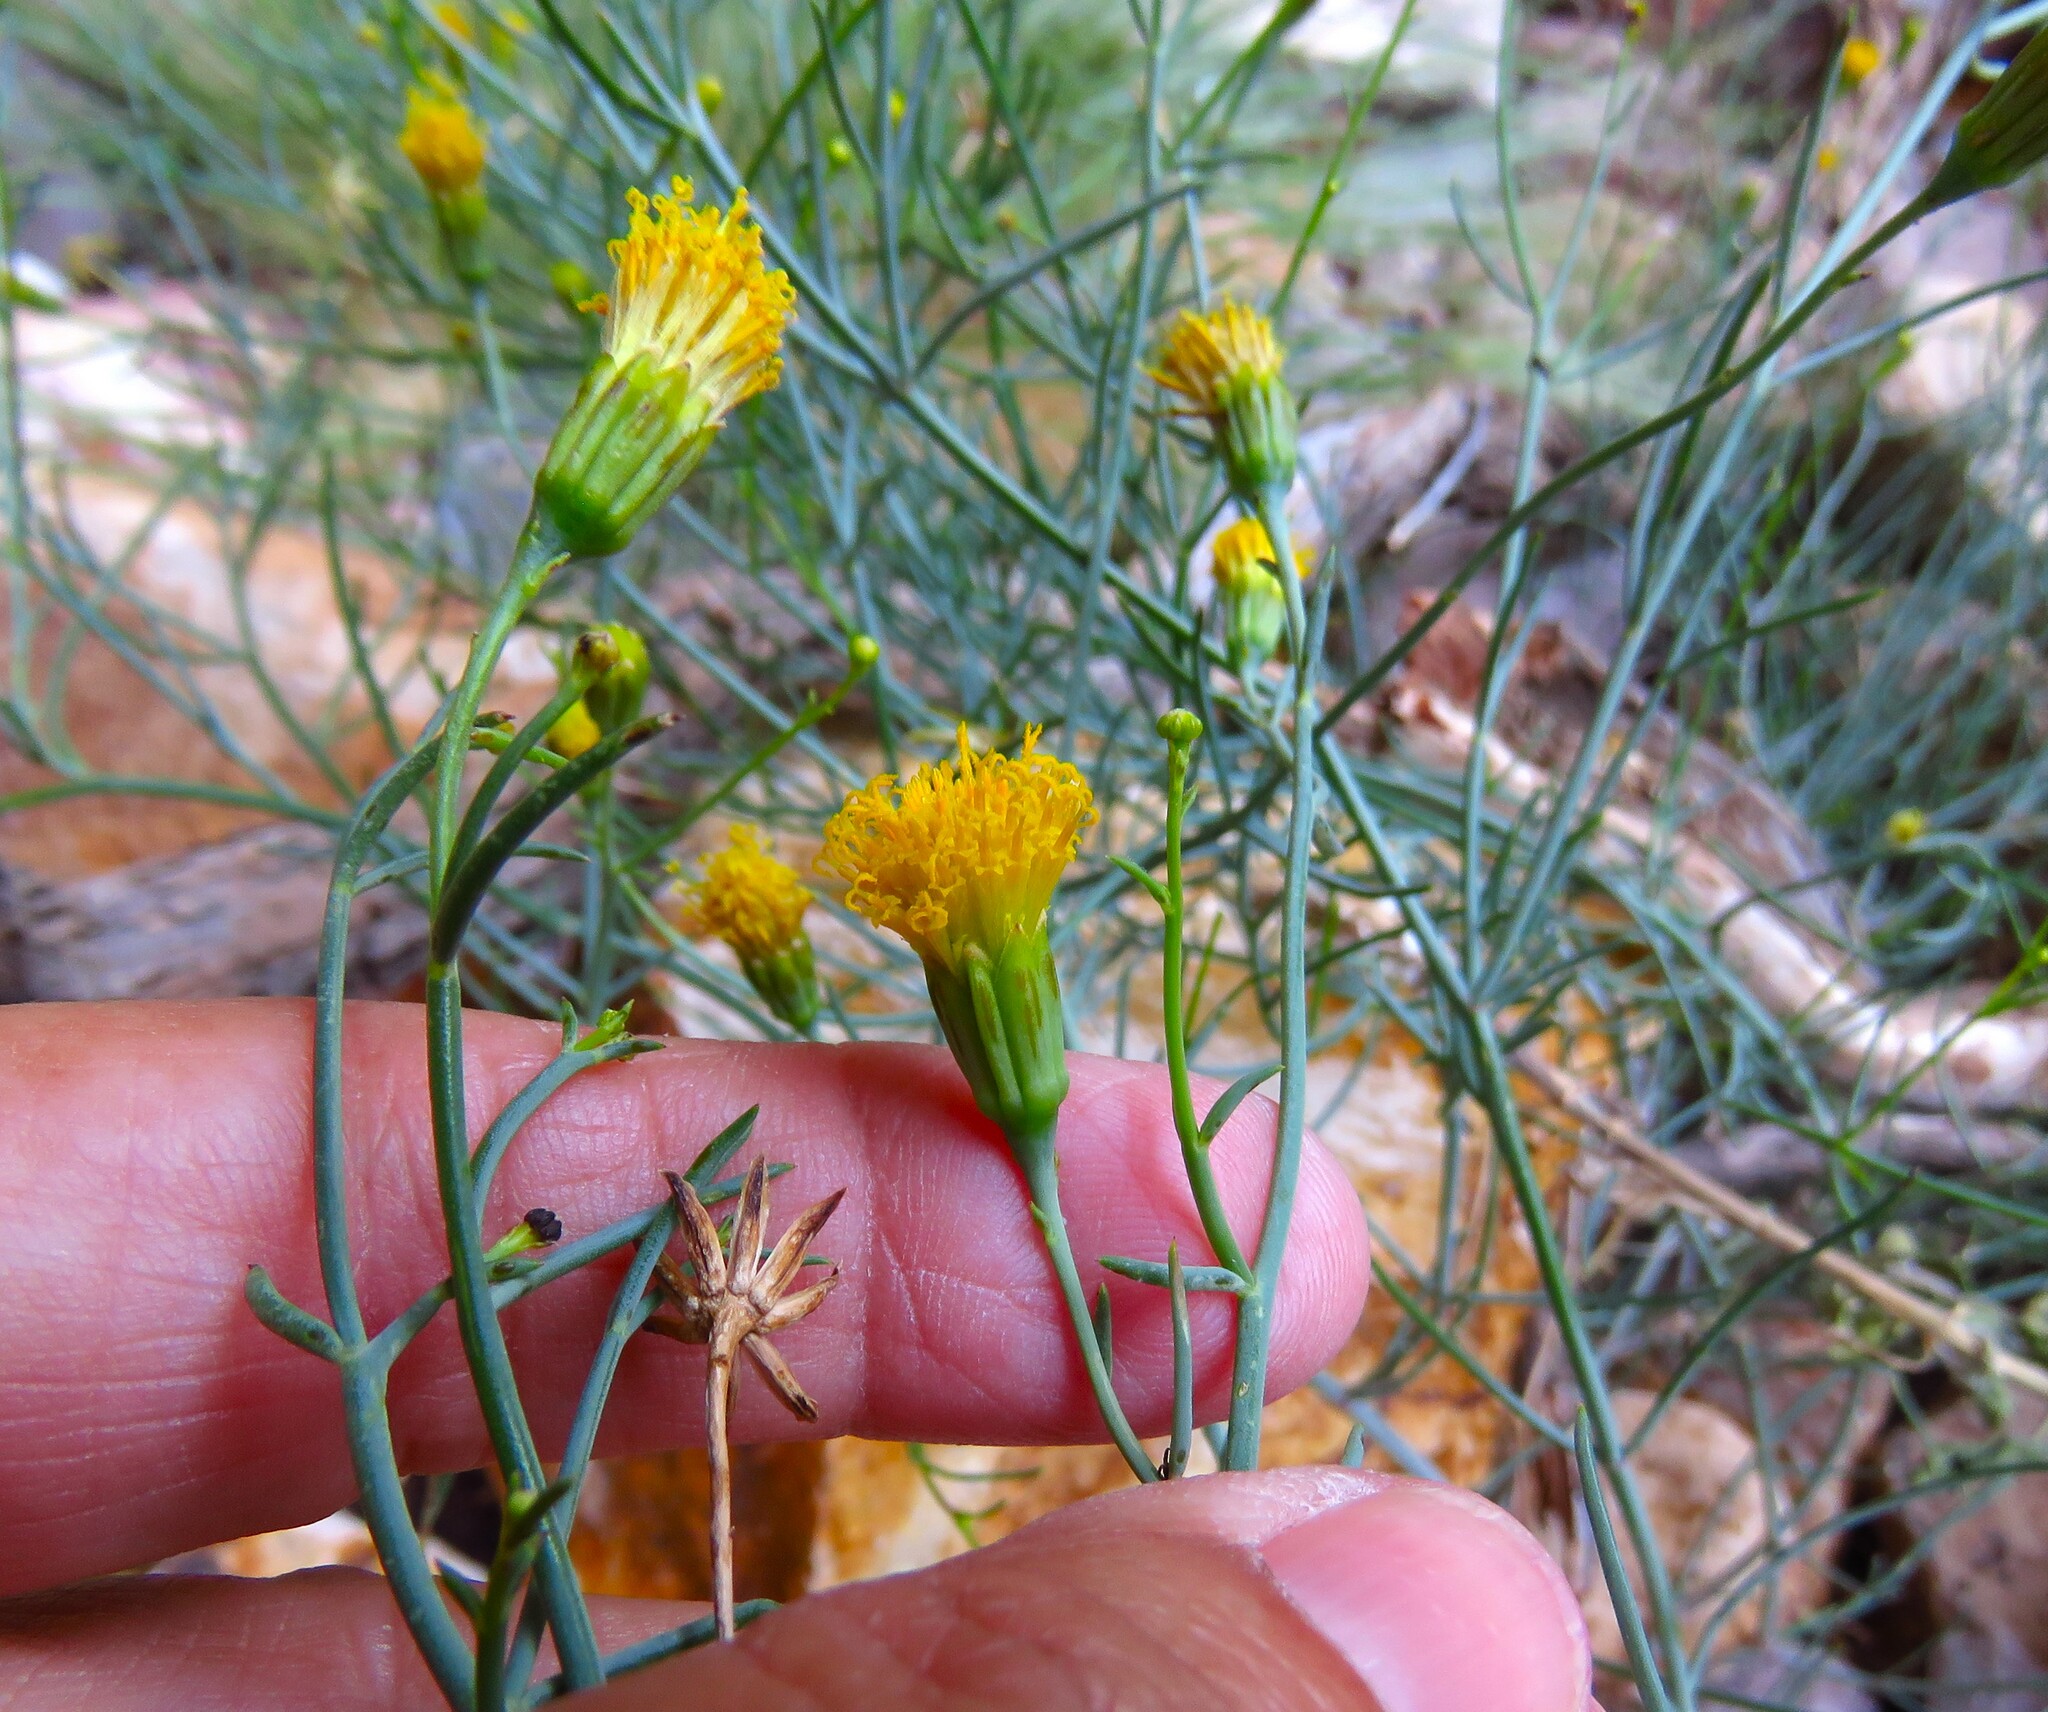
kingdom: Plantae
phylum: Tracheophyta
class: Magnoliopsida
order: Asterales
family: Asteraceae
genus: Porophyllum
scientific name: Porophyllum scoparium
